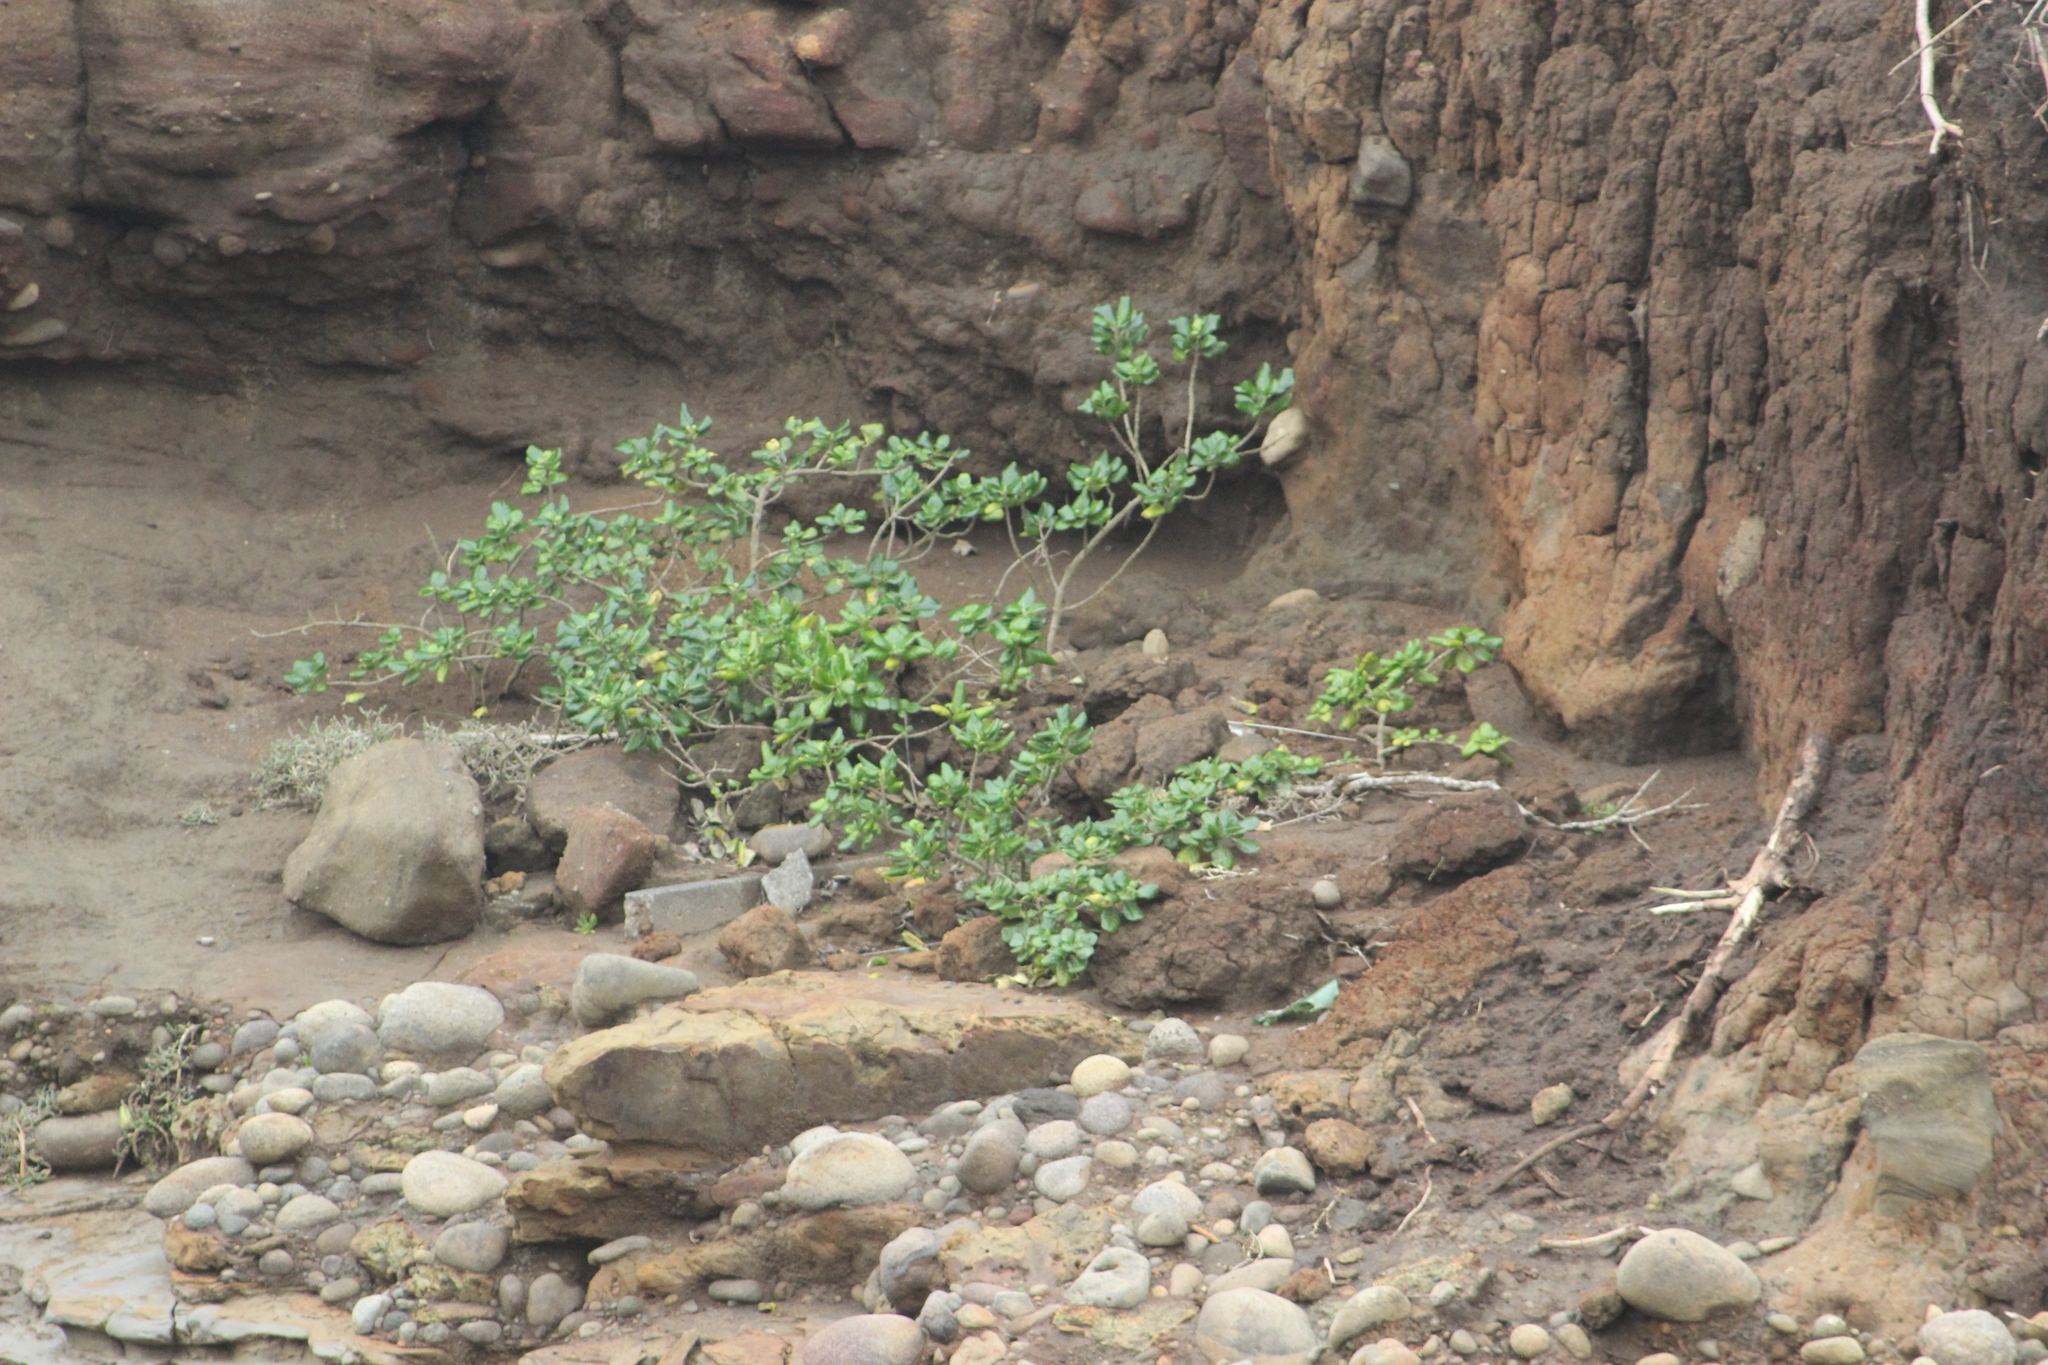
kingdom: Plantae
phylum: Tracheophyta
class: Magnoliopsida
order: Gentianales
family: Rubiaceae
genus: Coprosma
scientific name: Coprosma repens
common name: Tree bedstraw
